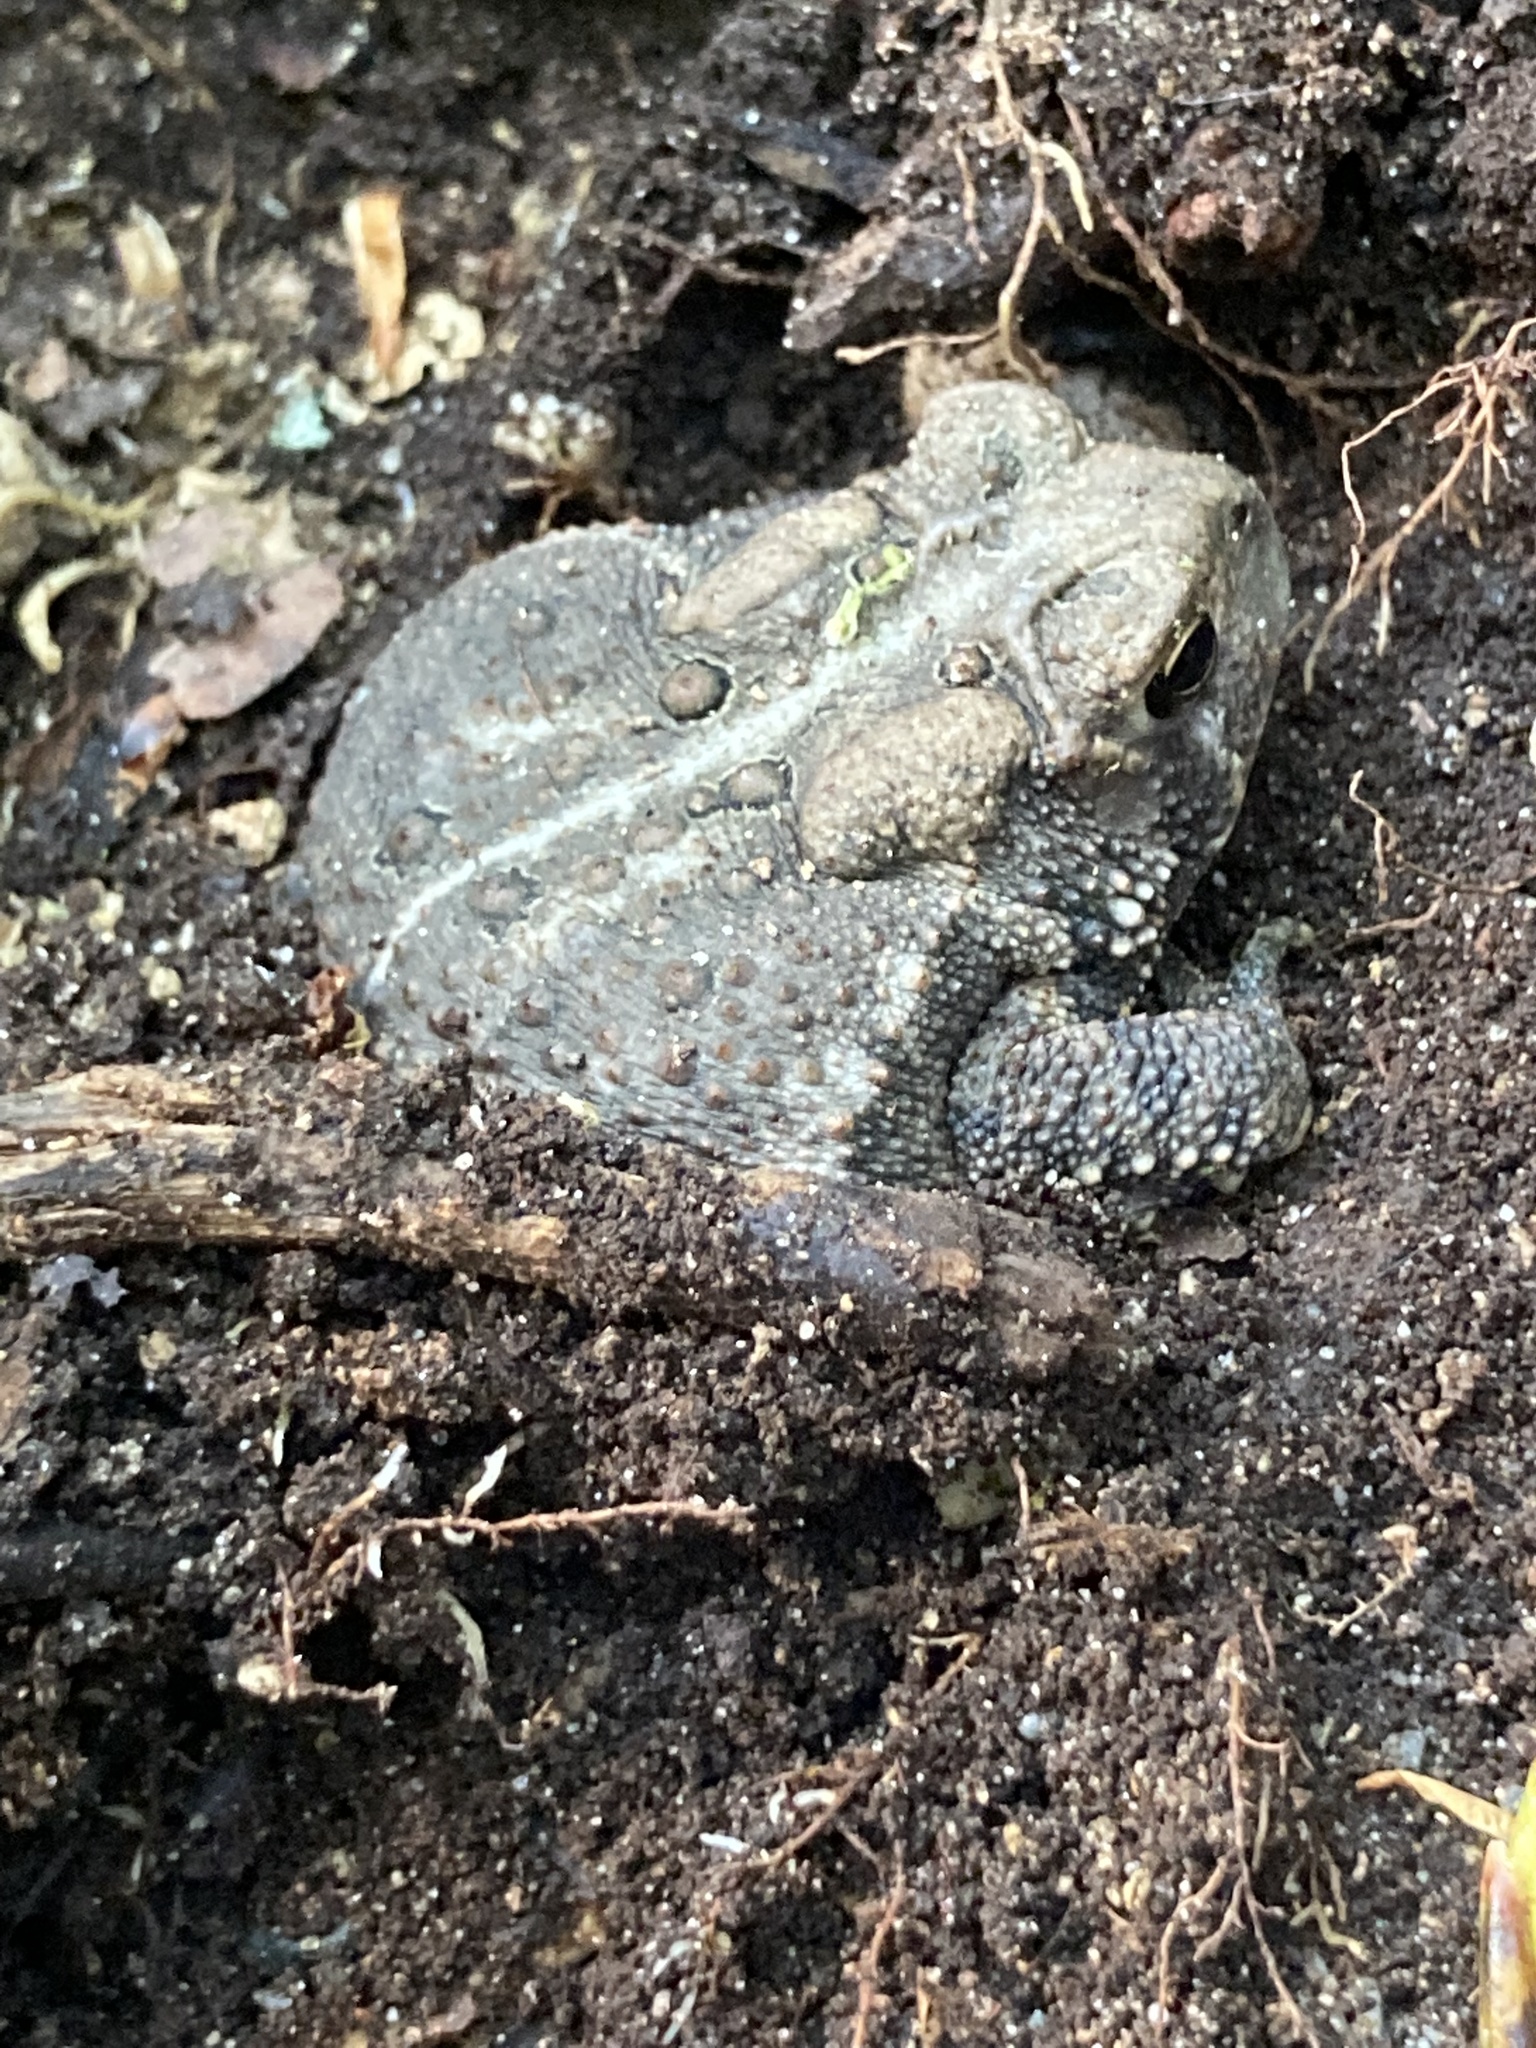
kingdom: Animalia
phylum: Chordata
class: Amphibia
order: Anura
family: Bufonidae
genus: Anaxyrus
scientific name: Anaxyrus americanus
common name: American toad
